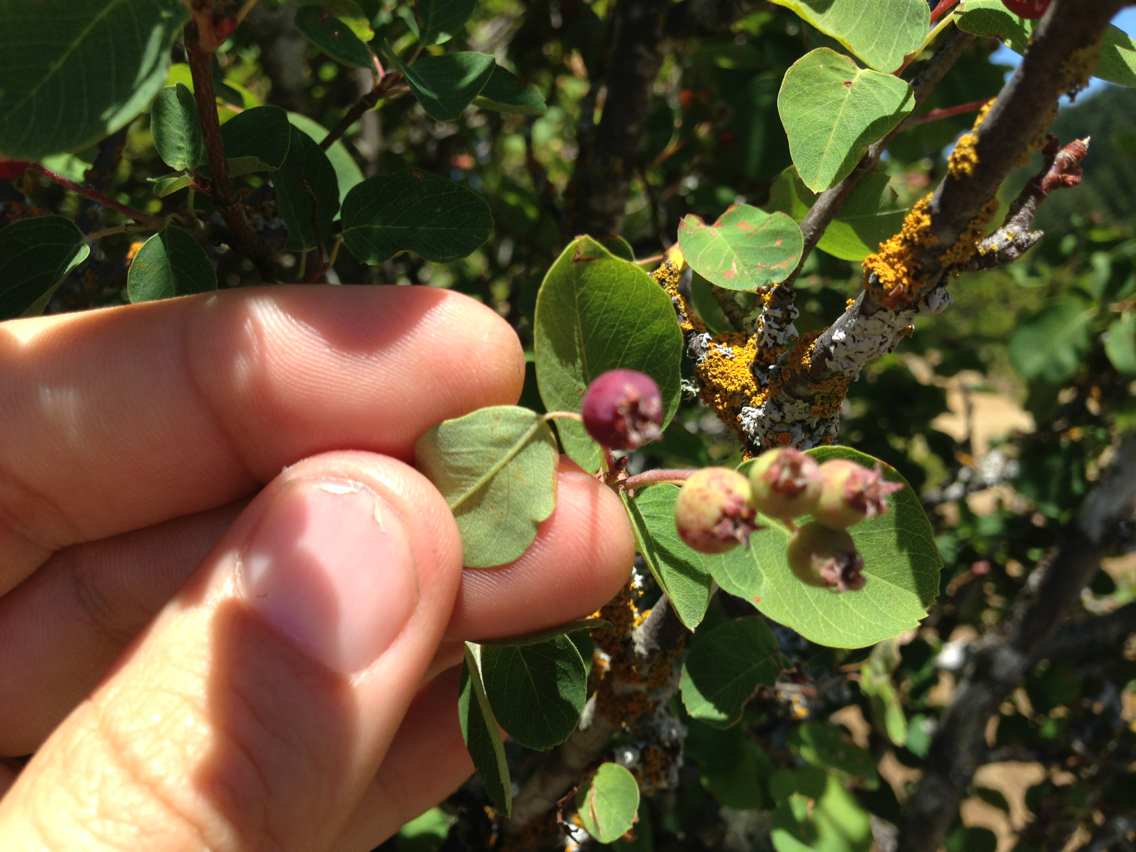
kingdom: Plantae
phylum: Tracheophyta
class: Magnoliopsida
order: Rosales
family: Rosaceae
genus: Amelanchier
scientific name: Amelanchier utahensis
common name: Utah serviceberry
